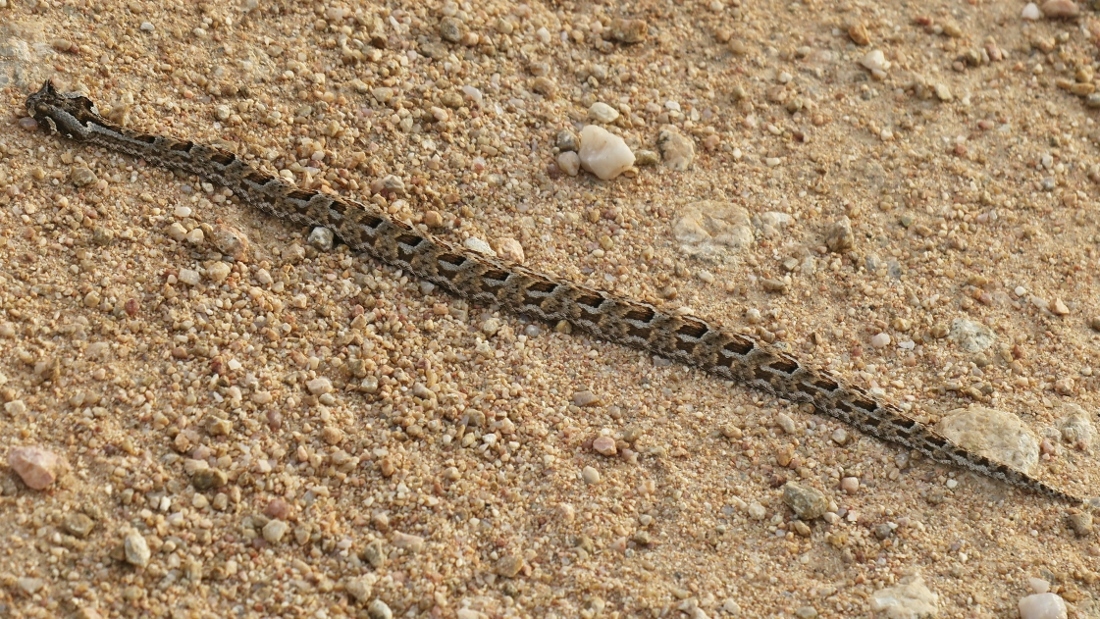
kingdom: Animalia
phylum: Chordata
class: Squamata
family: Viperidae
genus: Bitis
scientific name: Bitis cornuta
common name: Many-horned adder
